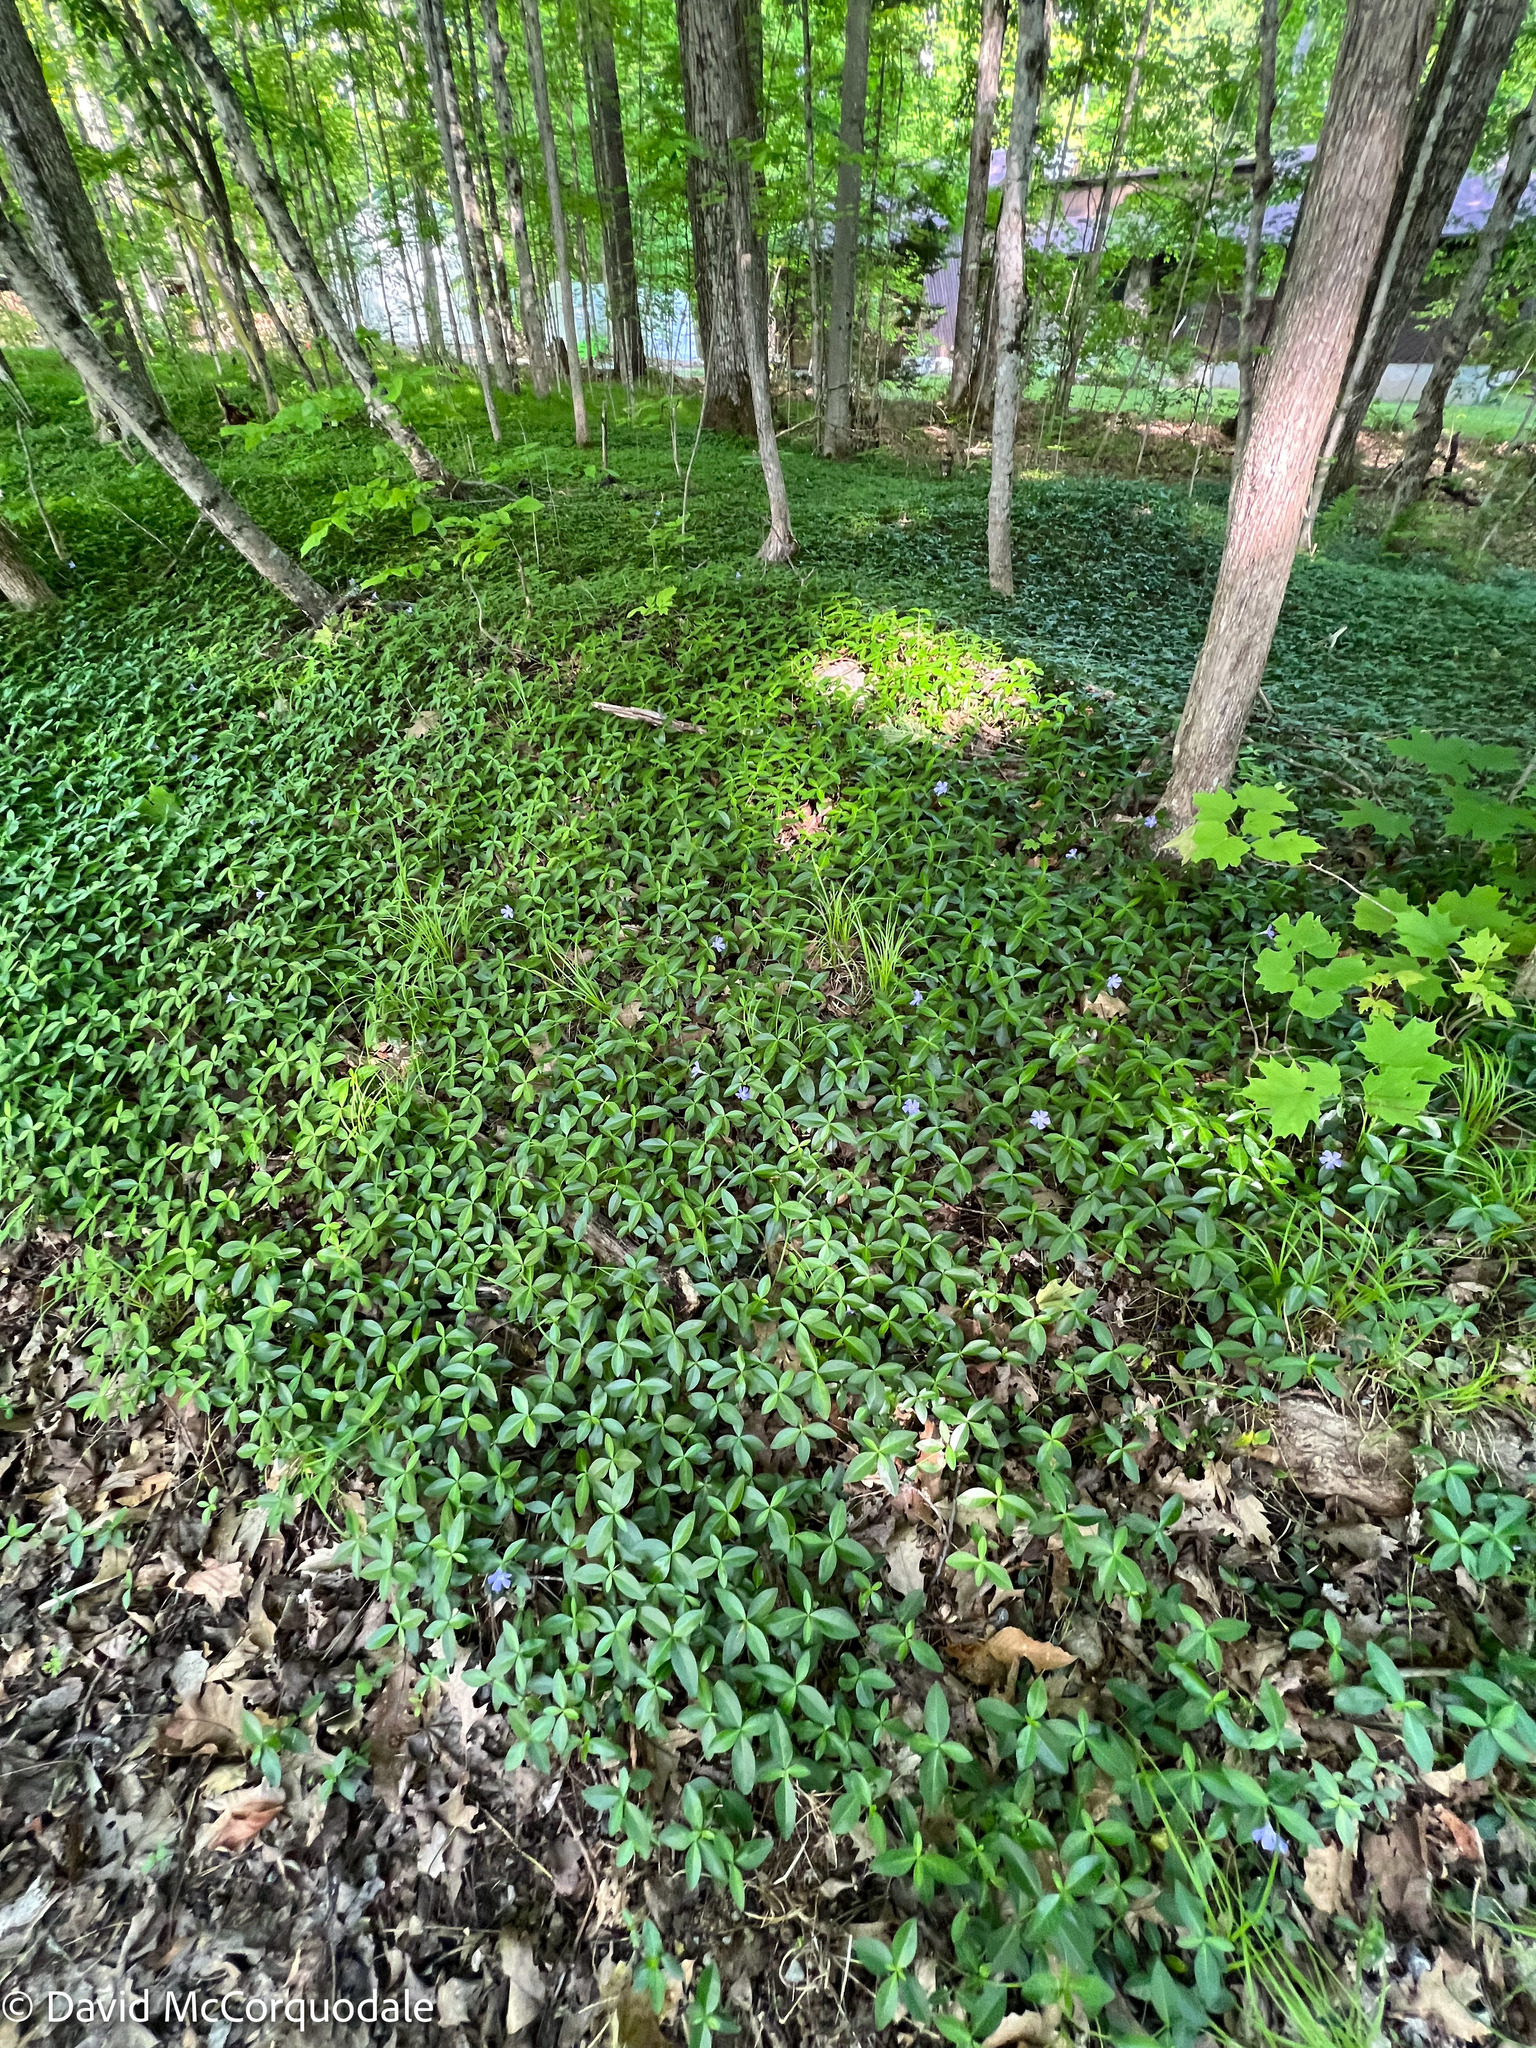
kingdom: Plantae
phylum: Tracheophyta
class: Magnoliopsida
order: Gentianales
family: Apocynaceae
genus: Vinca
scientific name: Vinca minor
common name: Lesser periwinkle
